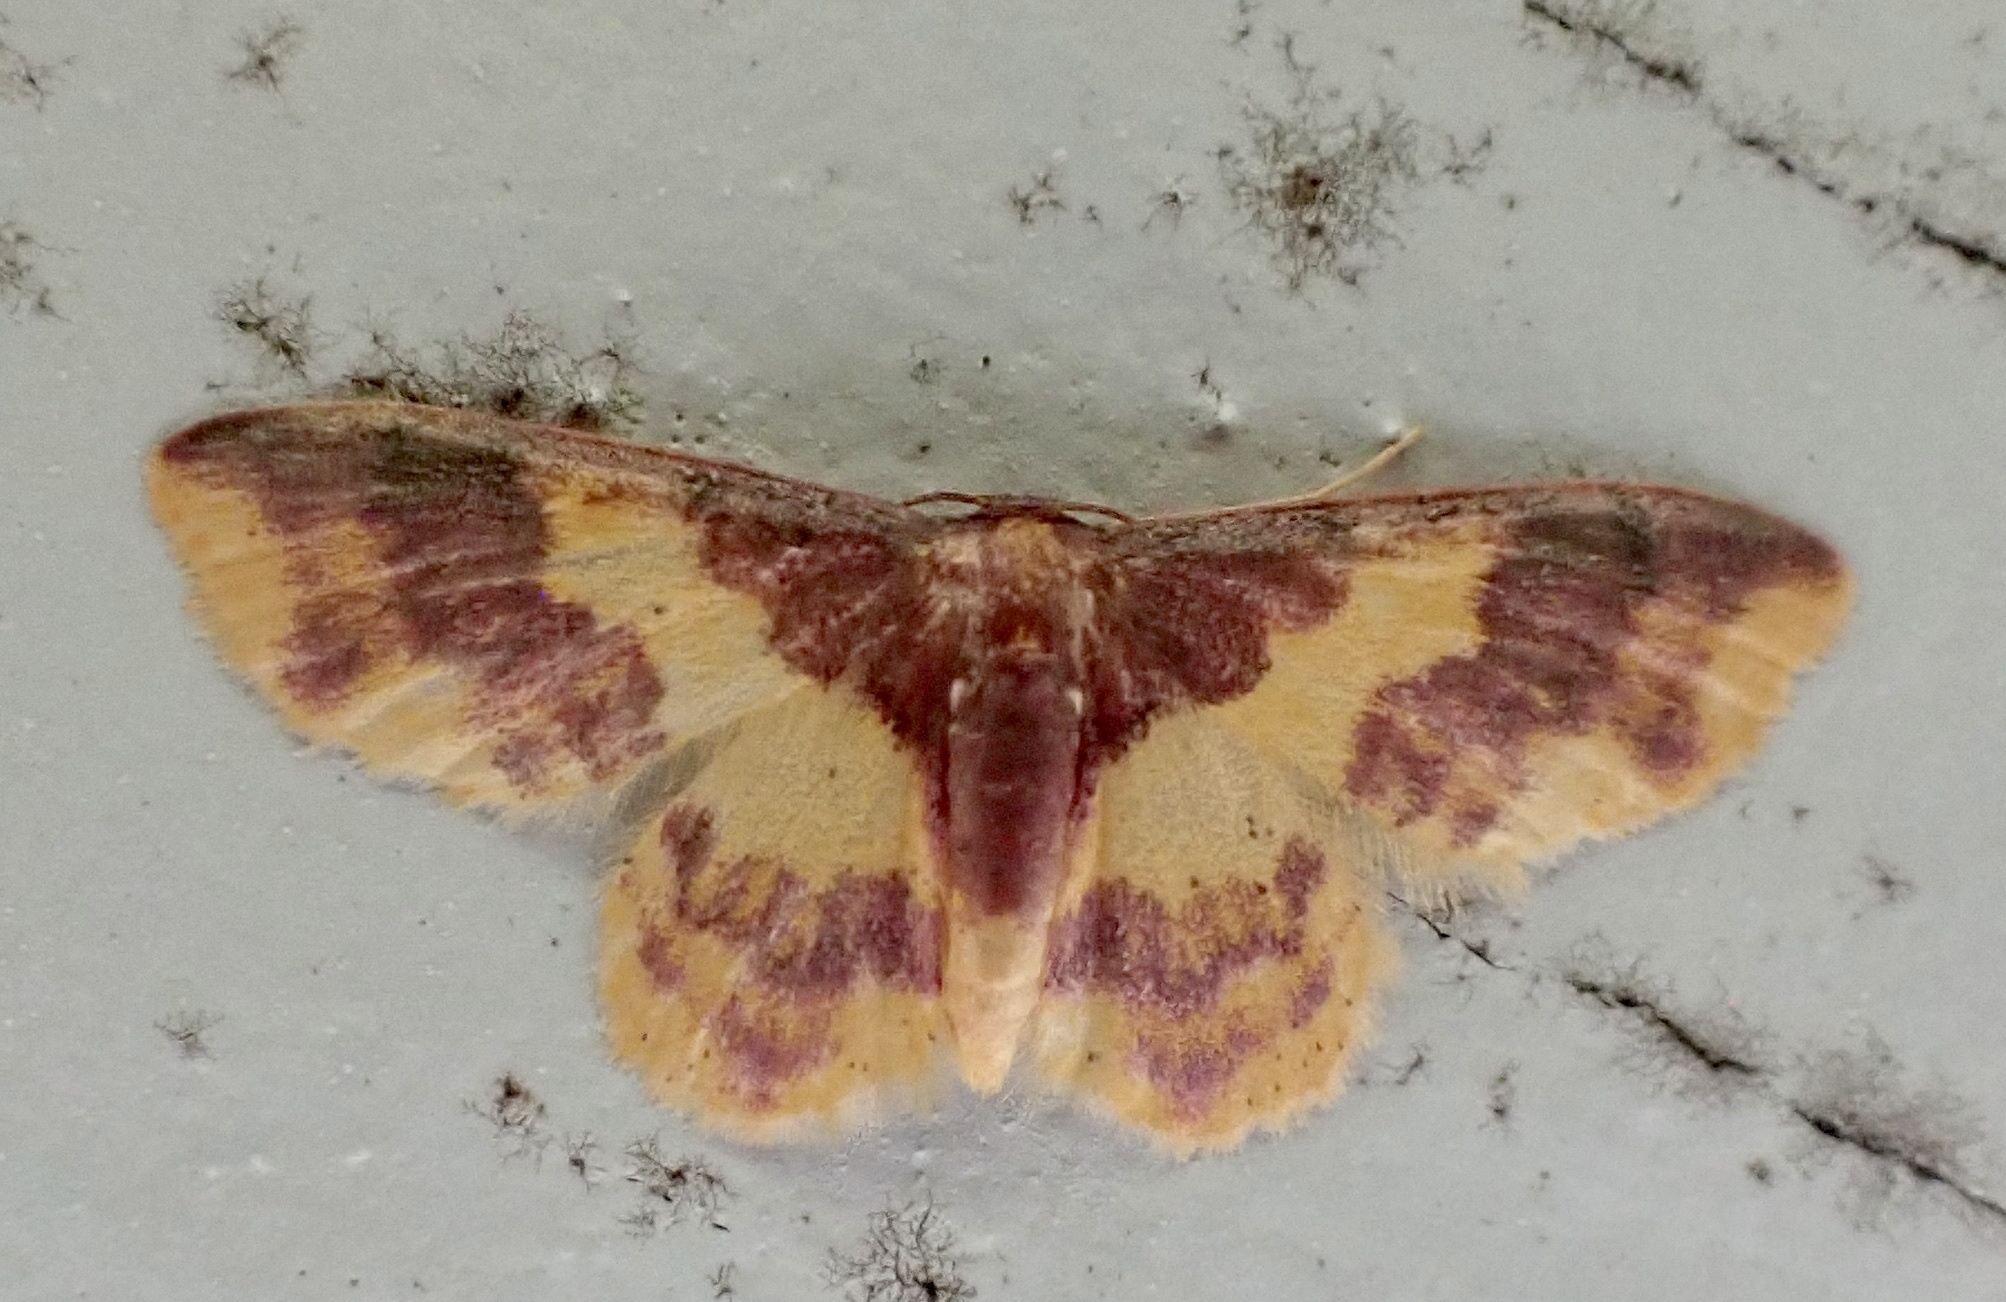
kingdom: Animalia
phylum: Arthropoda
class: Insecta
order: Lepidoptera
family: Geometridae
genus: Lophosis
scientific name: Lophosis labeculata
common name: Stained lophosis moth
